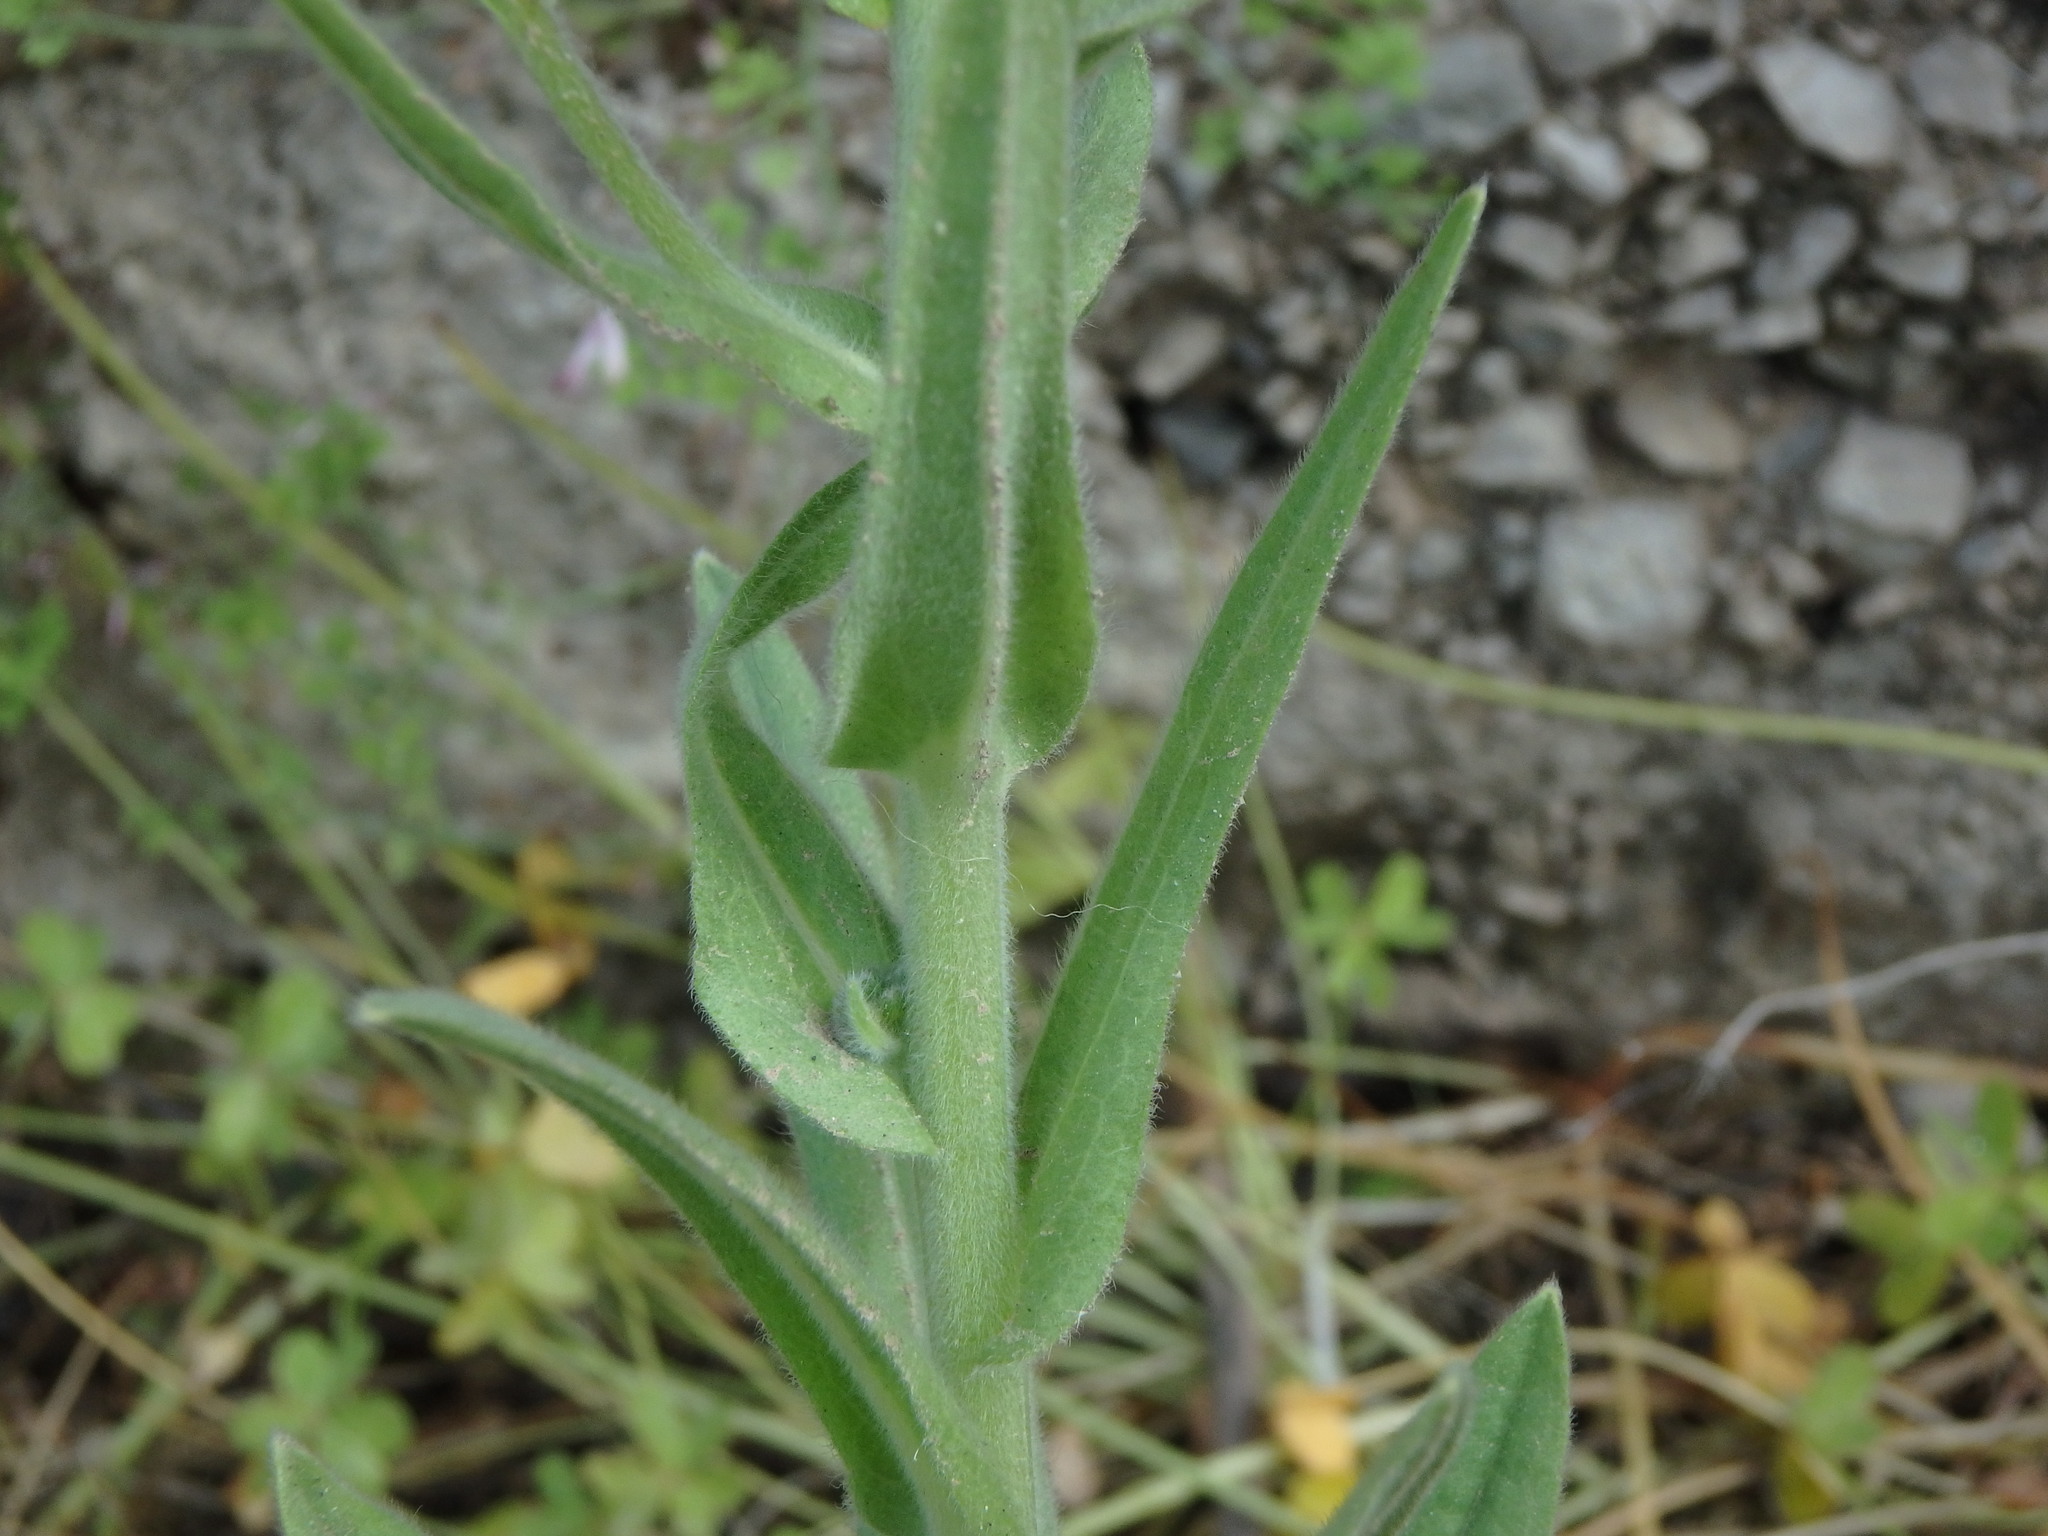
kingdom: Plantae
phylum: Tracheophyta
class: Magnoliopsida
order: Boraginales
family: Boraginaceae
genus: Cynoglossum
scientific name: Cynoglossum creticum
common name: Blue hound's tongue
